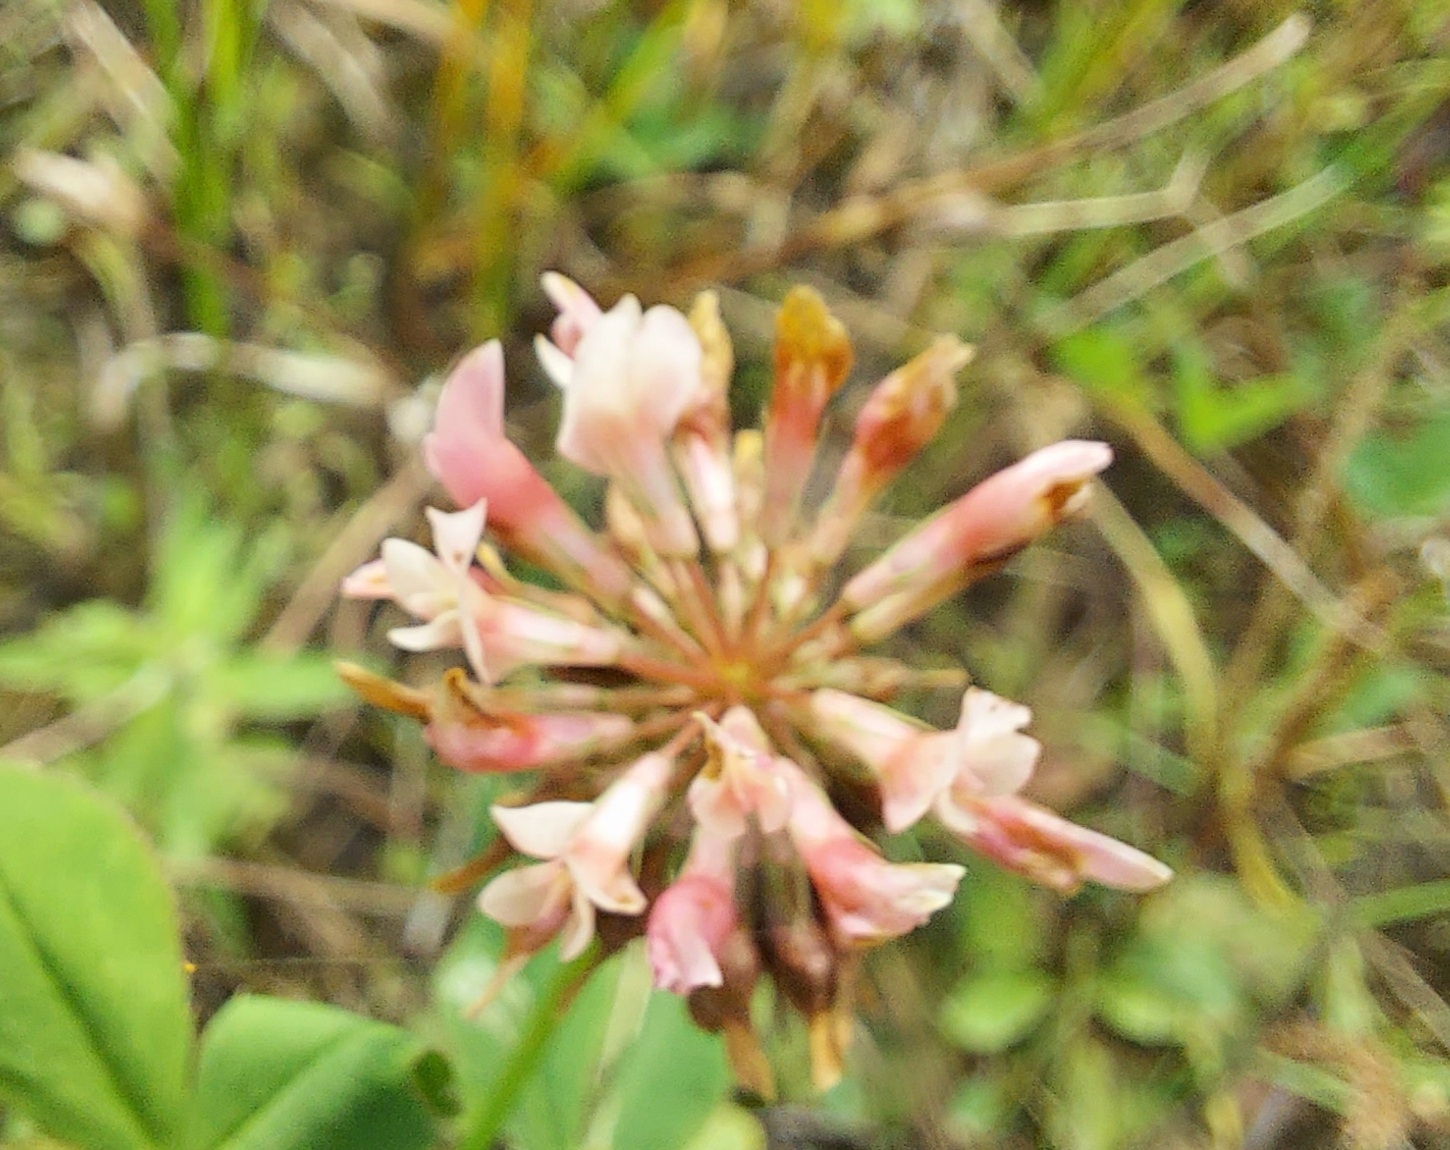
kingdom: Plantae
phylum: Tracheophyta
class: Magnoliopsida
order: Fabales
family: Fabaceae
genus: Trifolium
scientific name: Trifolium hybridum
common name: Alsike clover
